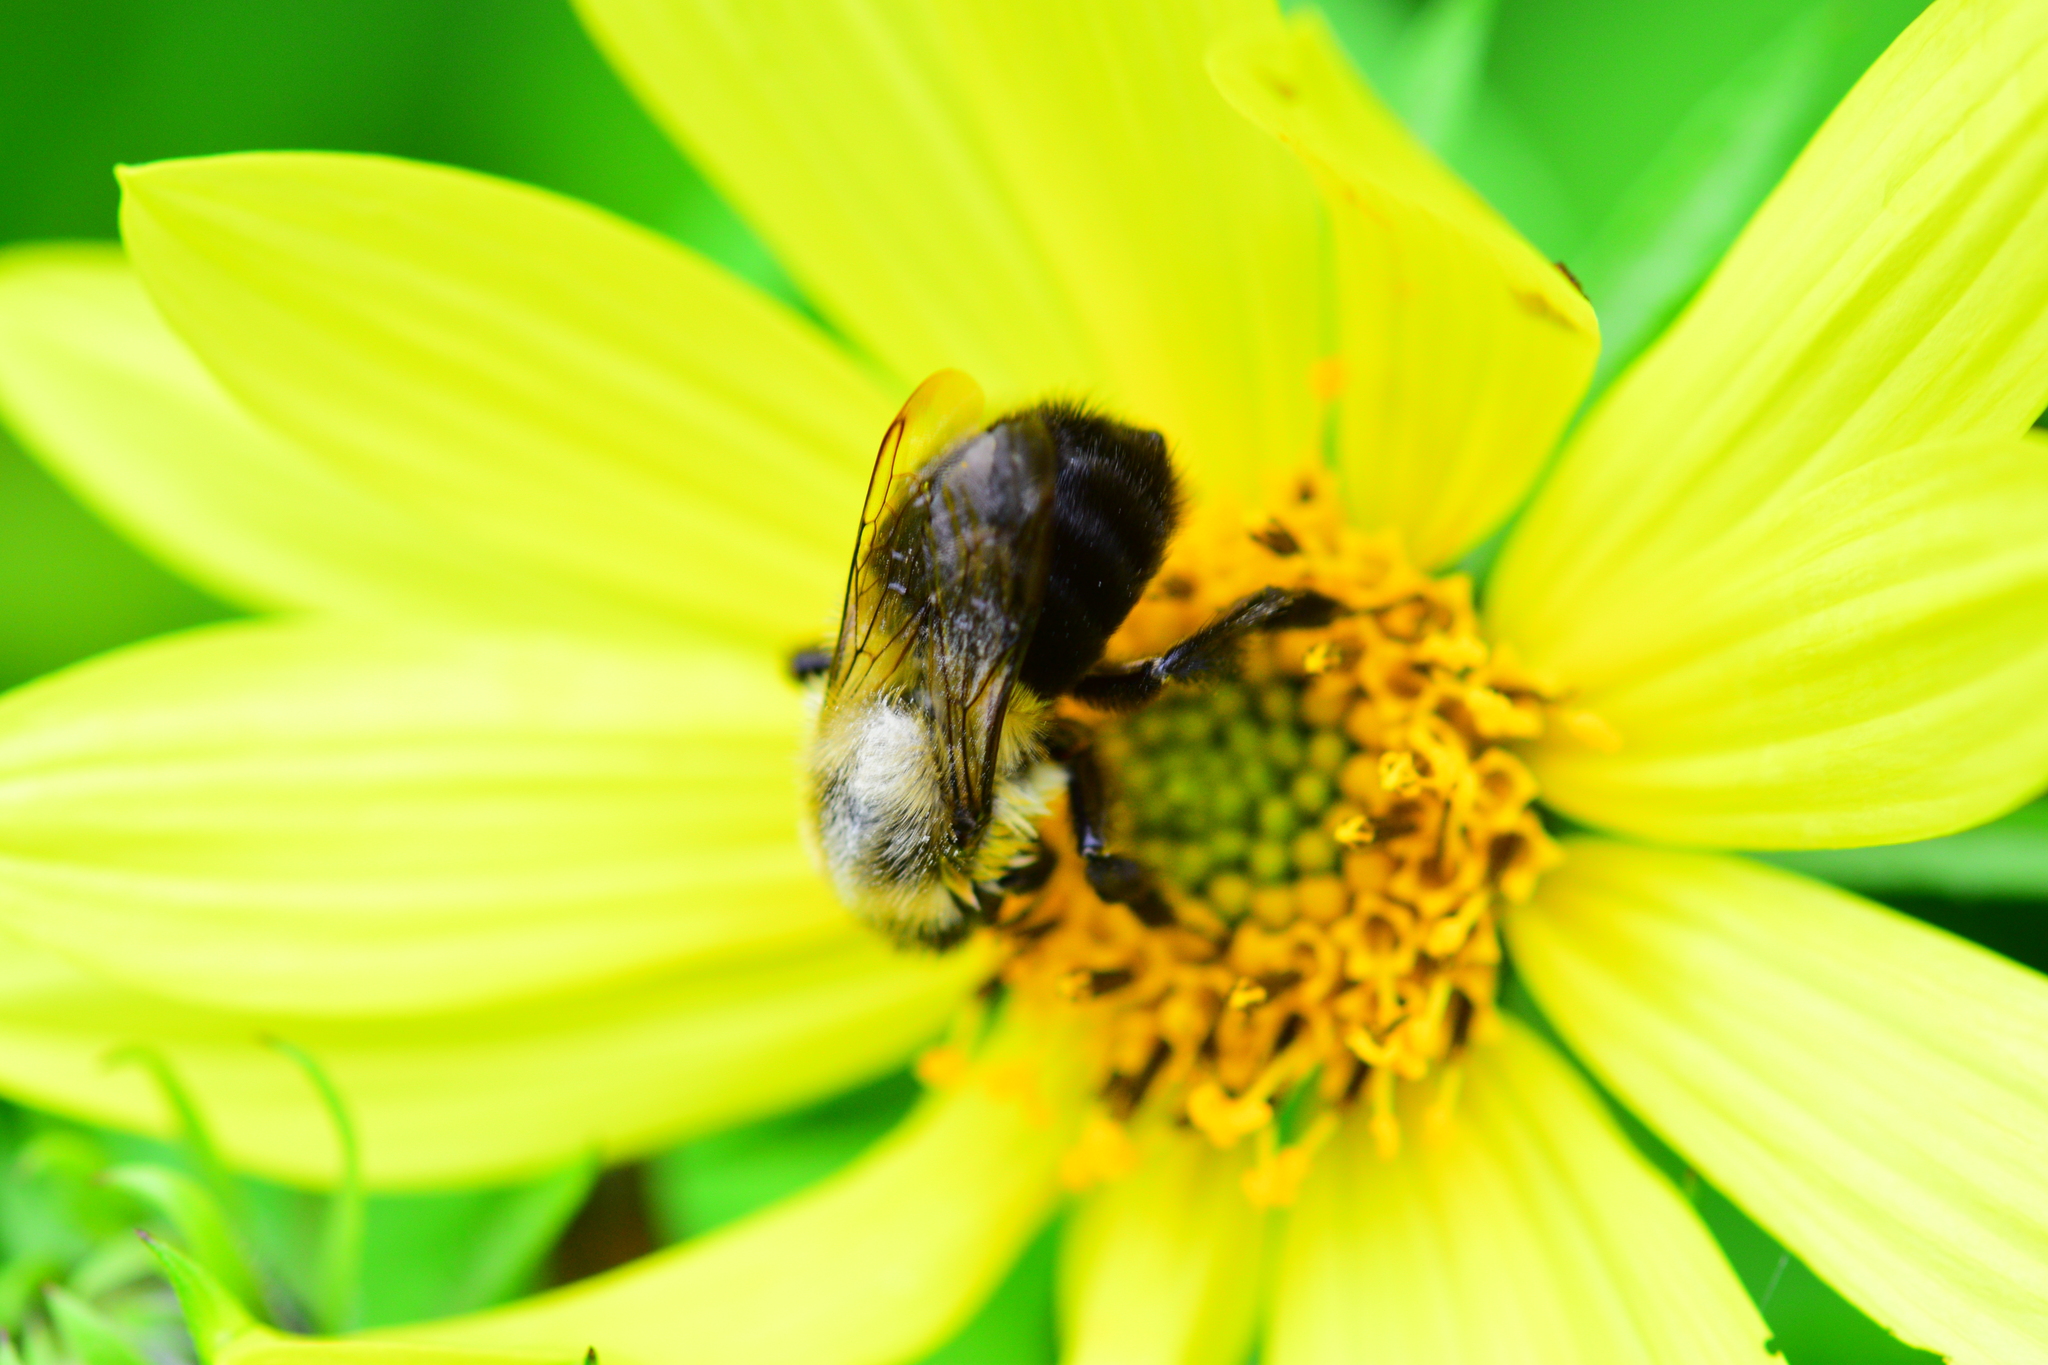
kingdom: Animalia
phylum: Arthropoda
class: Insecta
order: Hymenoptera
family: Apidae
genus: Bombus
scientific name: Bombus impatiens
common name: Common eastern bumble bee
